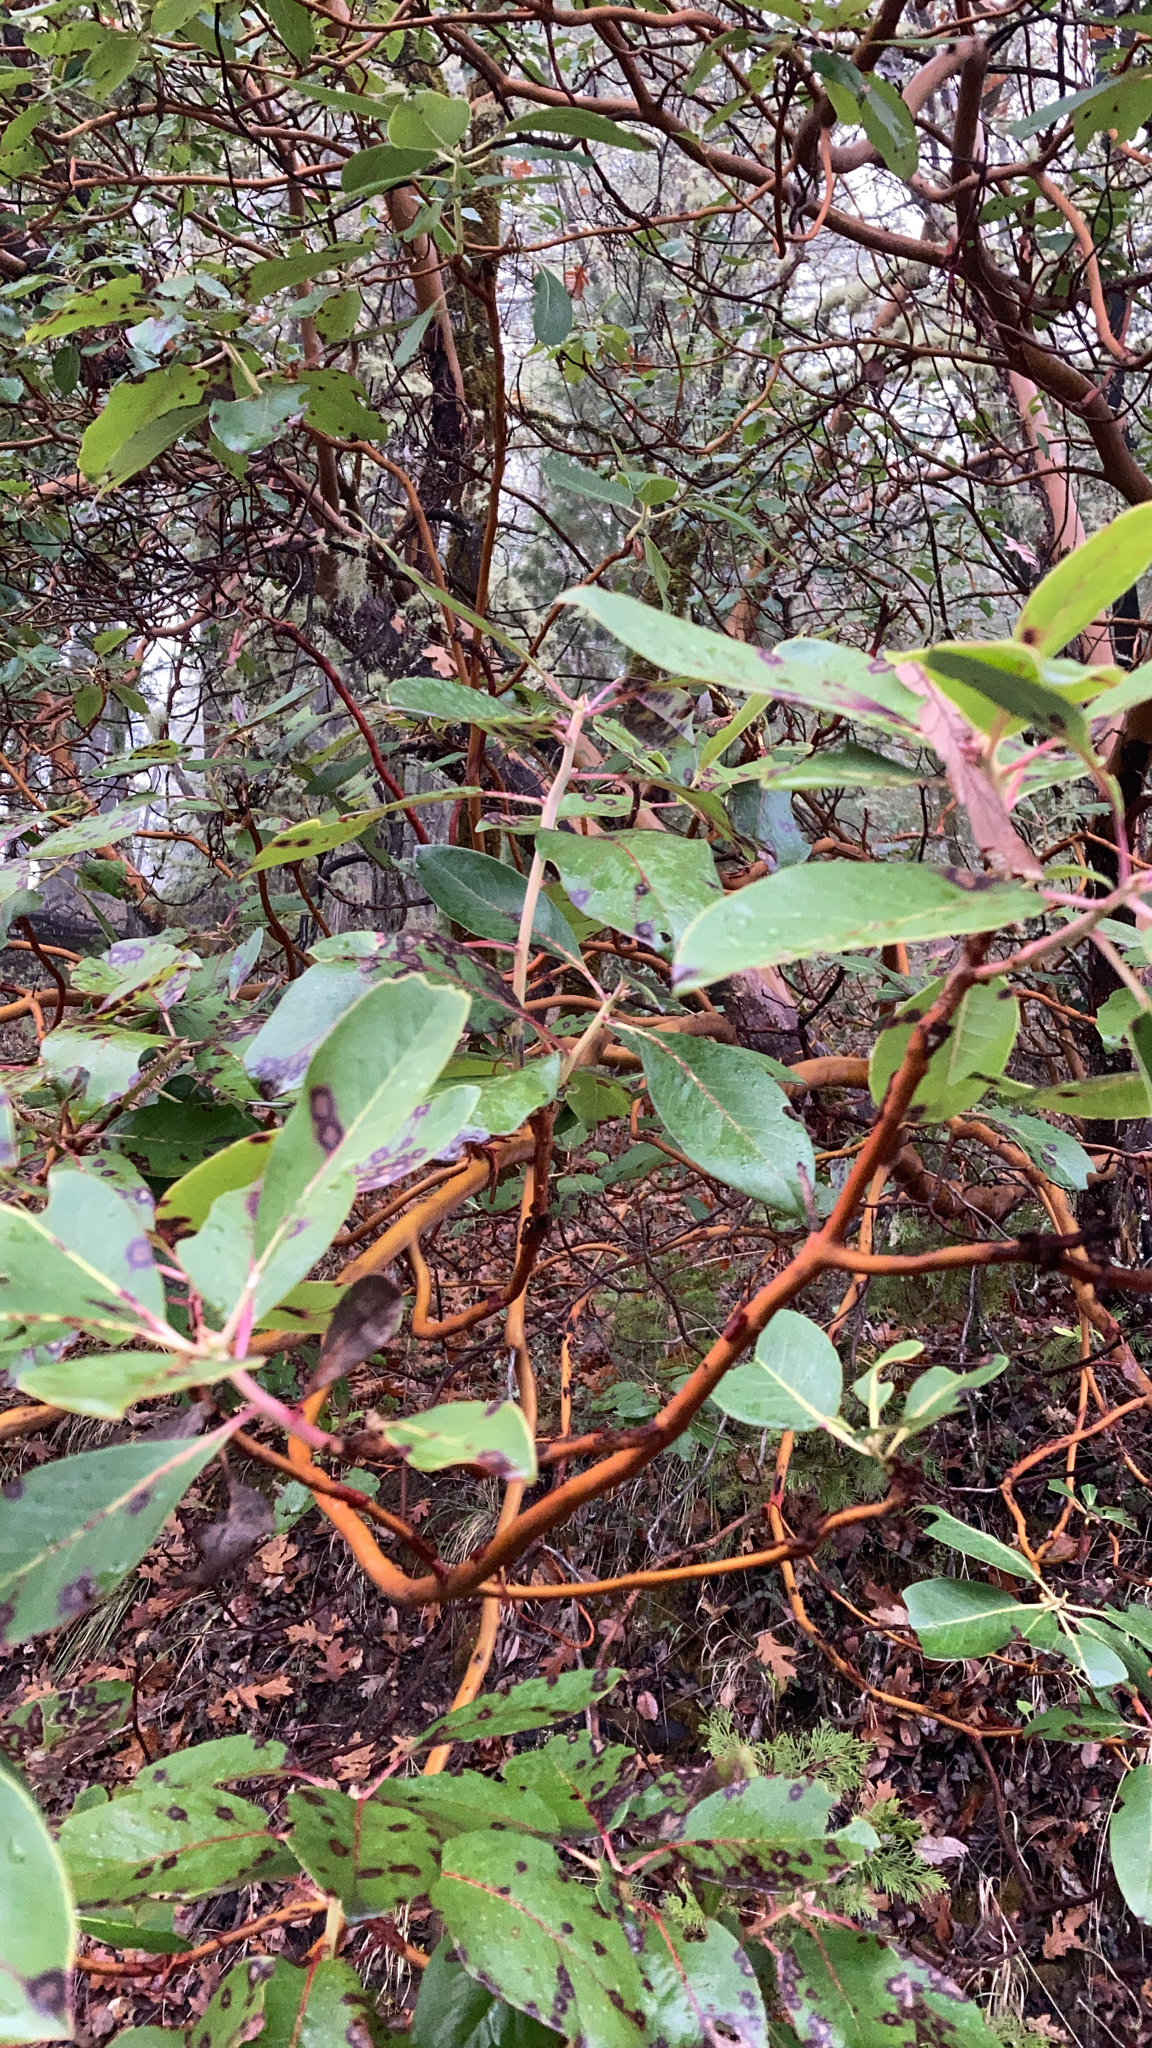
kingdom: Plantae
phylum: Tracheophyta
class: Magnoliopsida
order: Ericales
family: Ericaceae
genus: Arbutus
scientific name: Arbutus menziesii
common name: Pacific madrone
